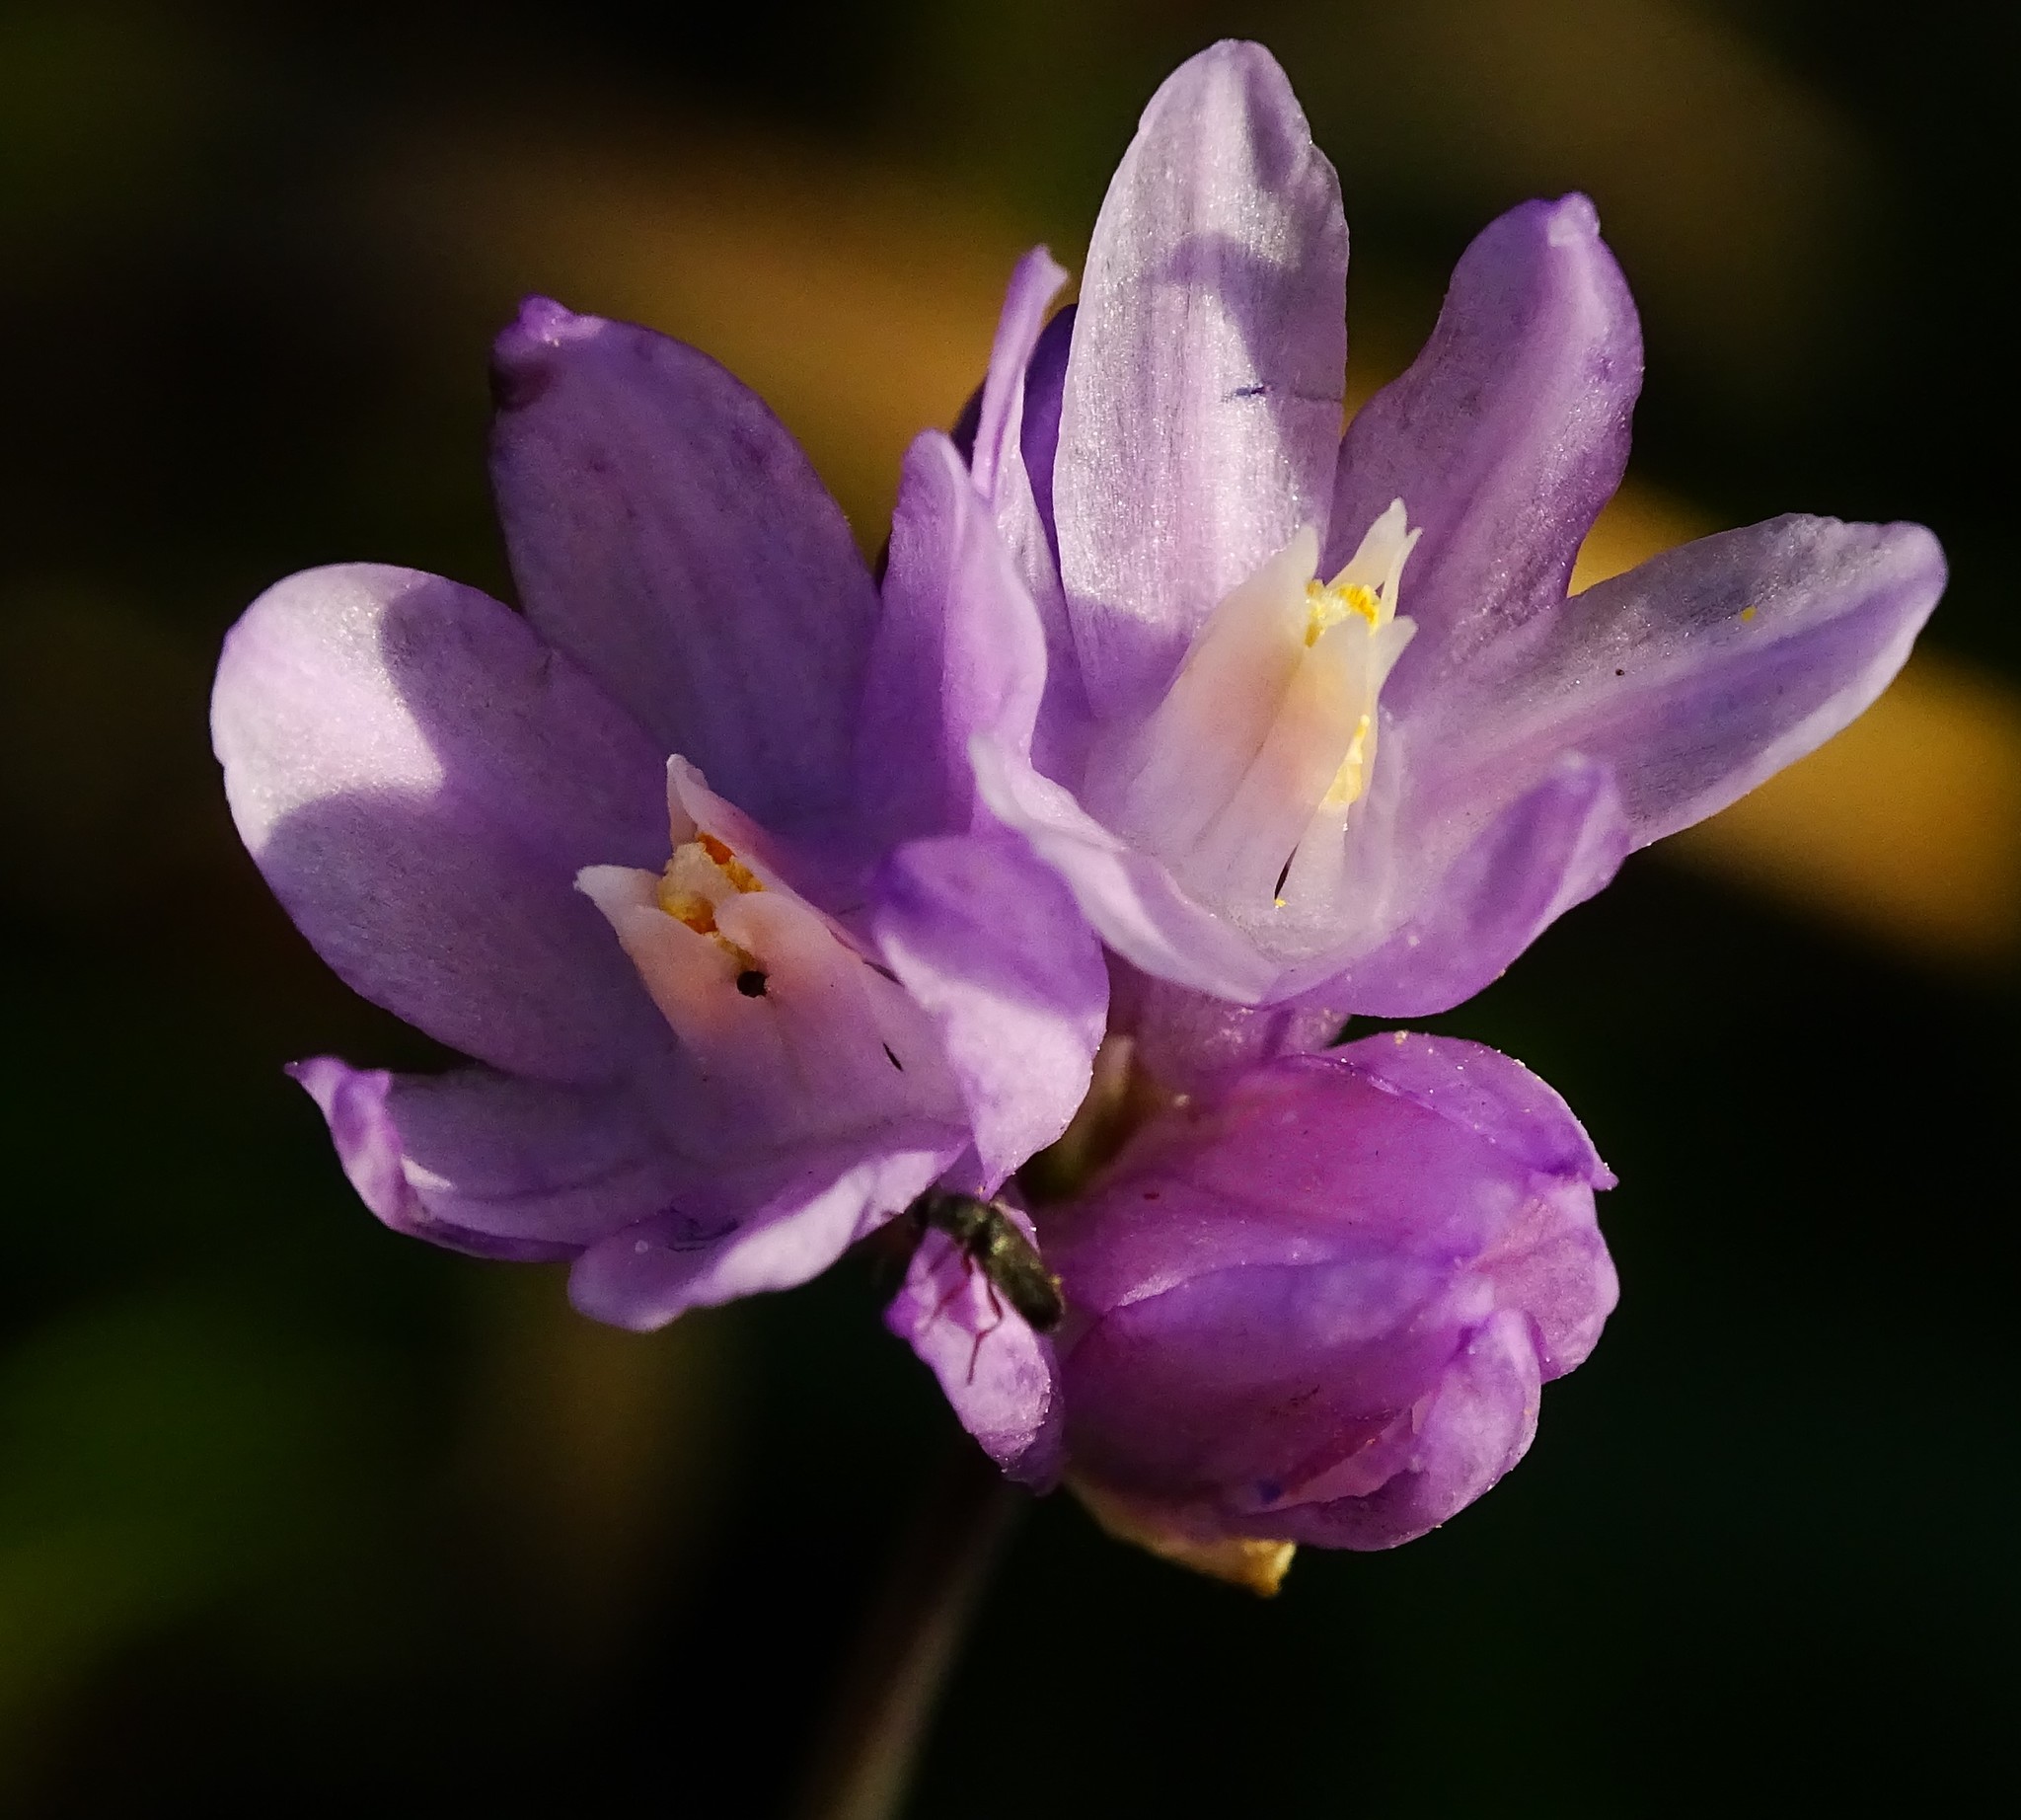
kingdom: Plantae
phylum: Tracheophyta
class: Liliopsida
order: Asparagales
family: Asparagaceae
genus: Dipterostemon
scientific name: Dipterostemon capitatus
